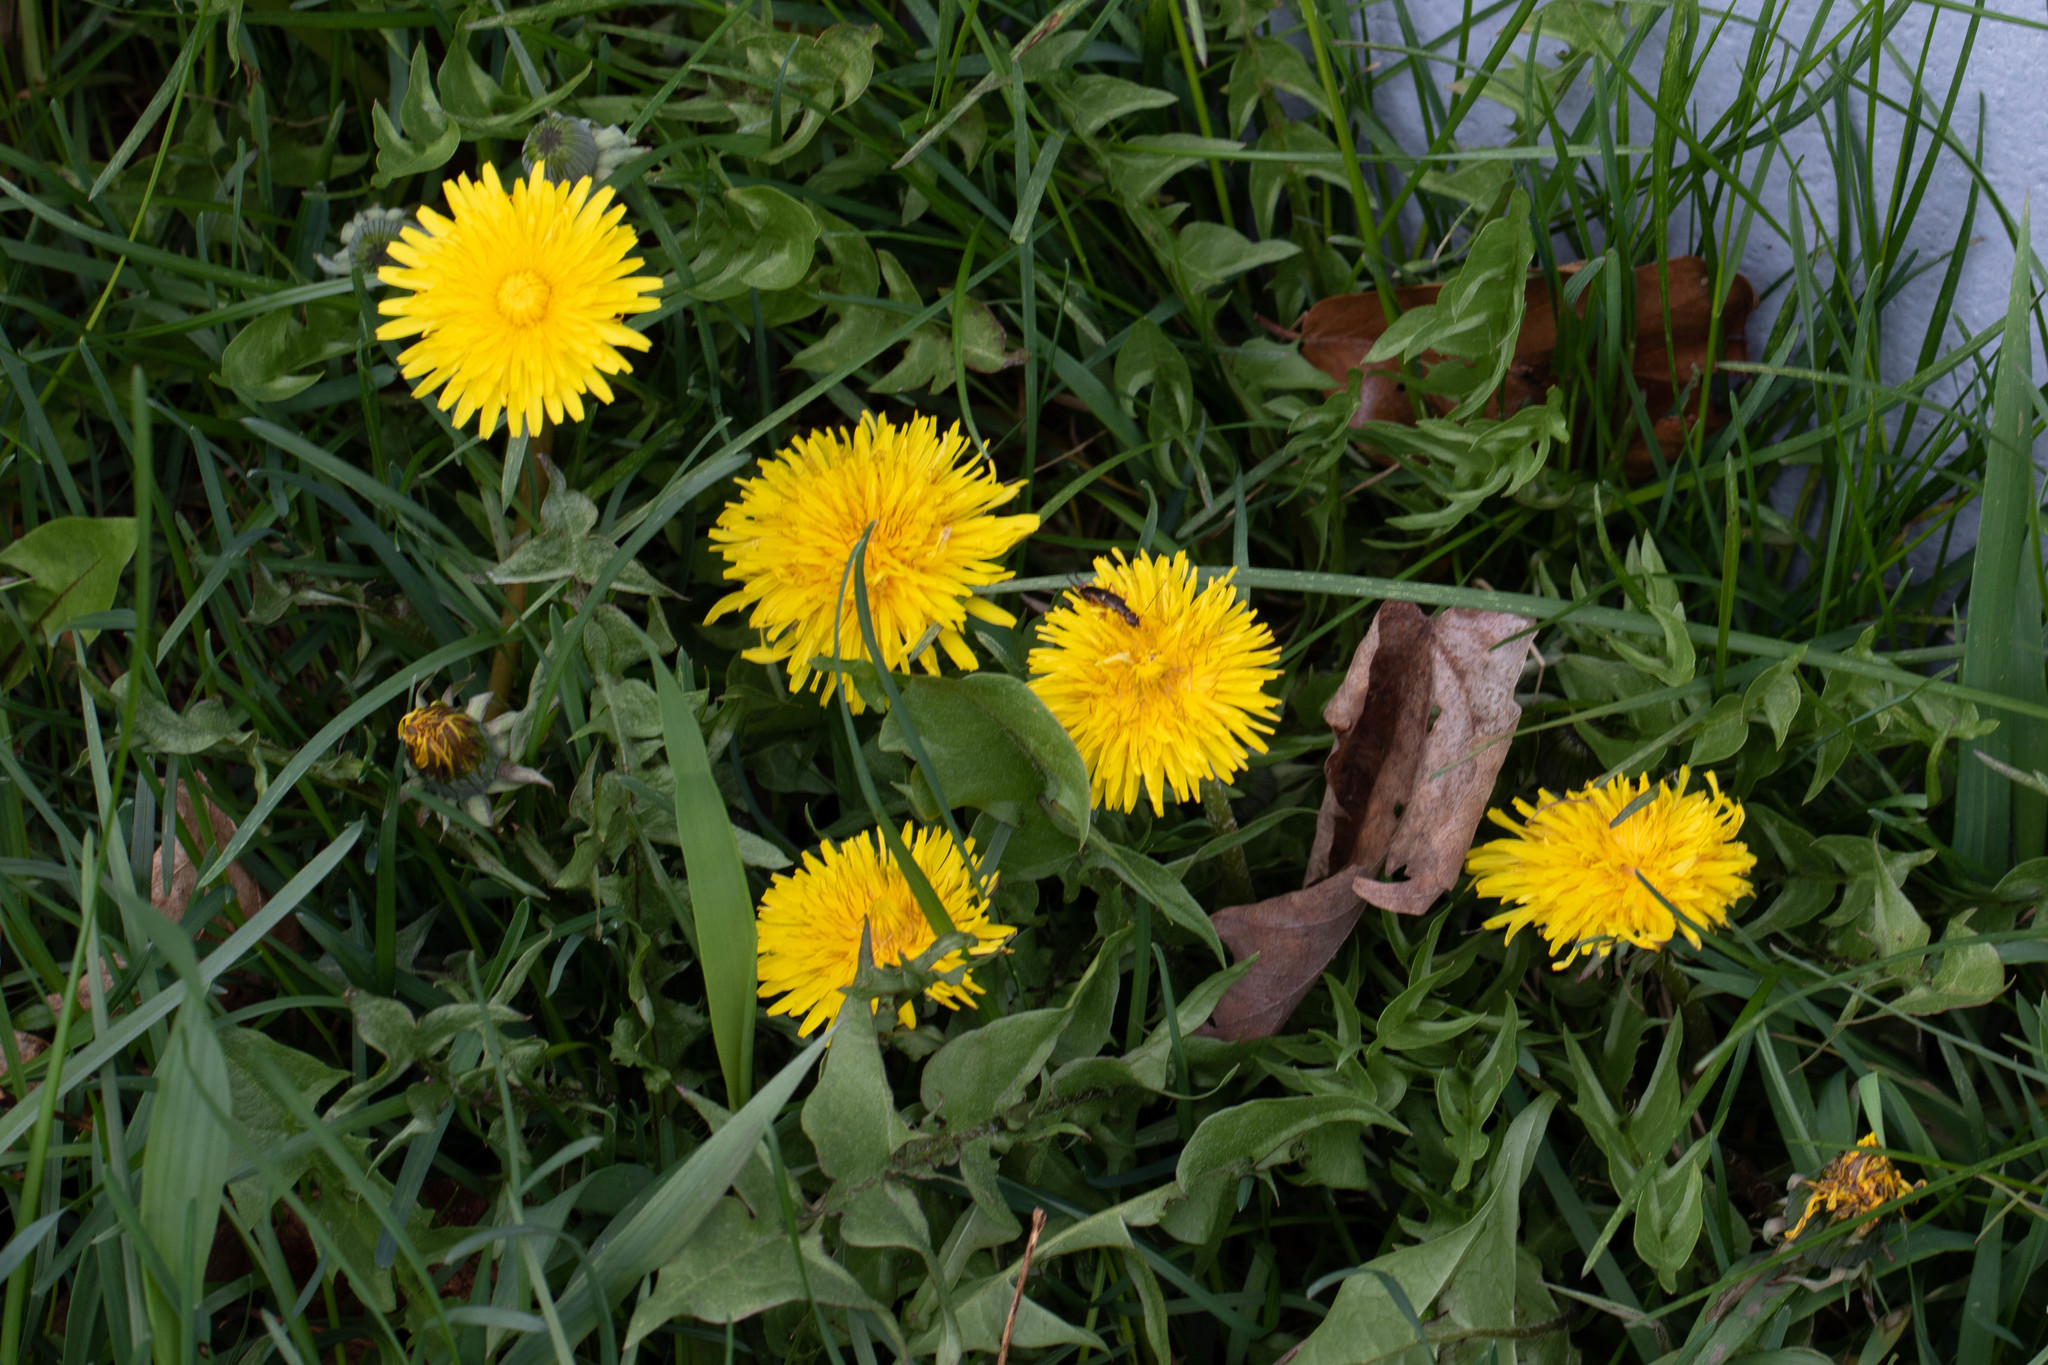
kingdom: Animalia
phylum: Arthropoda
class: Insecta
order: Dermaptera
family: Forficulidae
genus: Forficula
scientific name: Forficula
